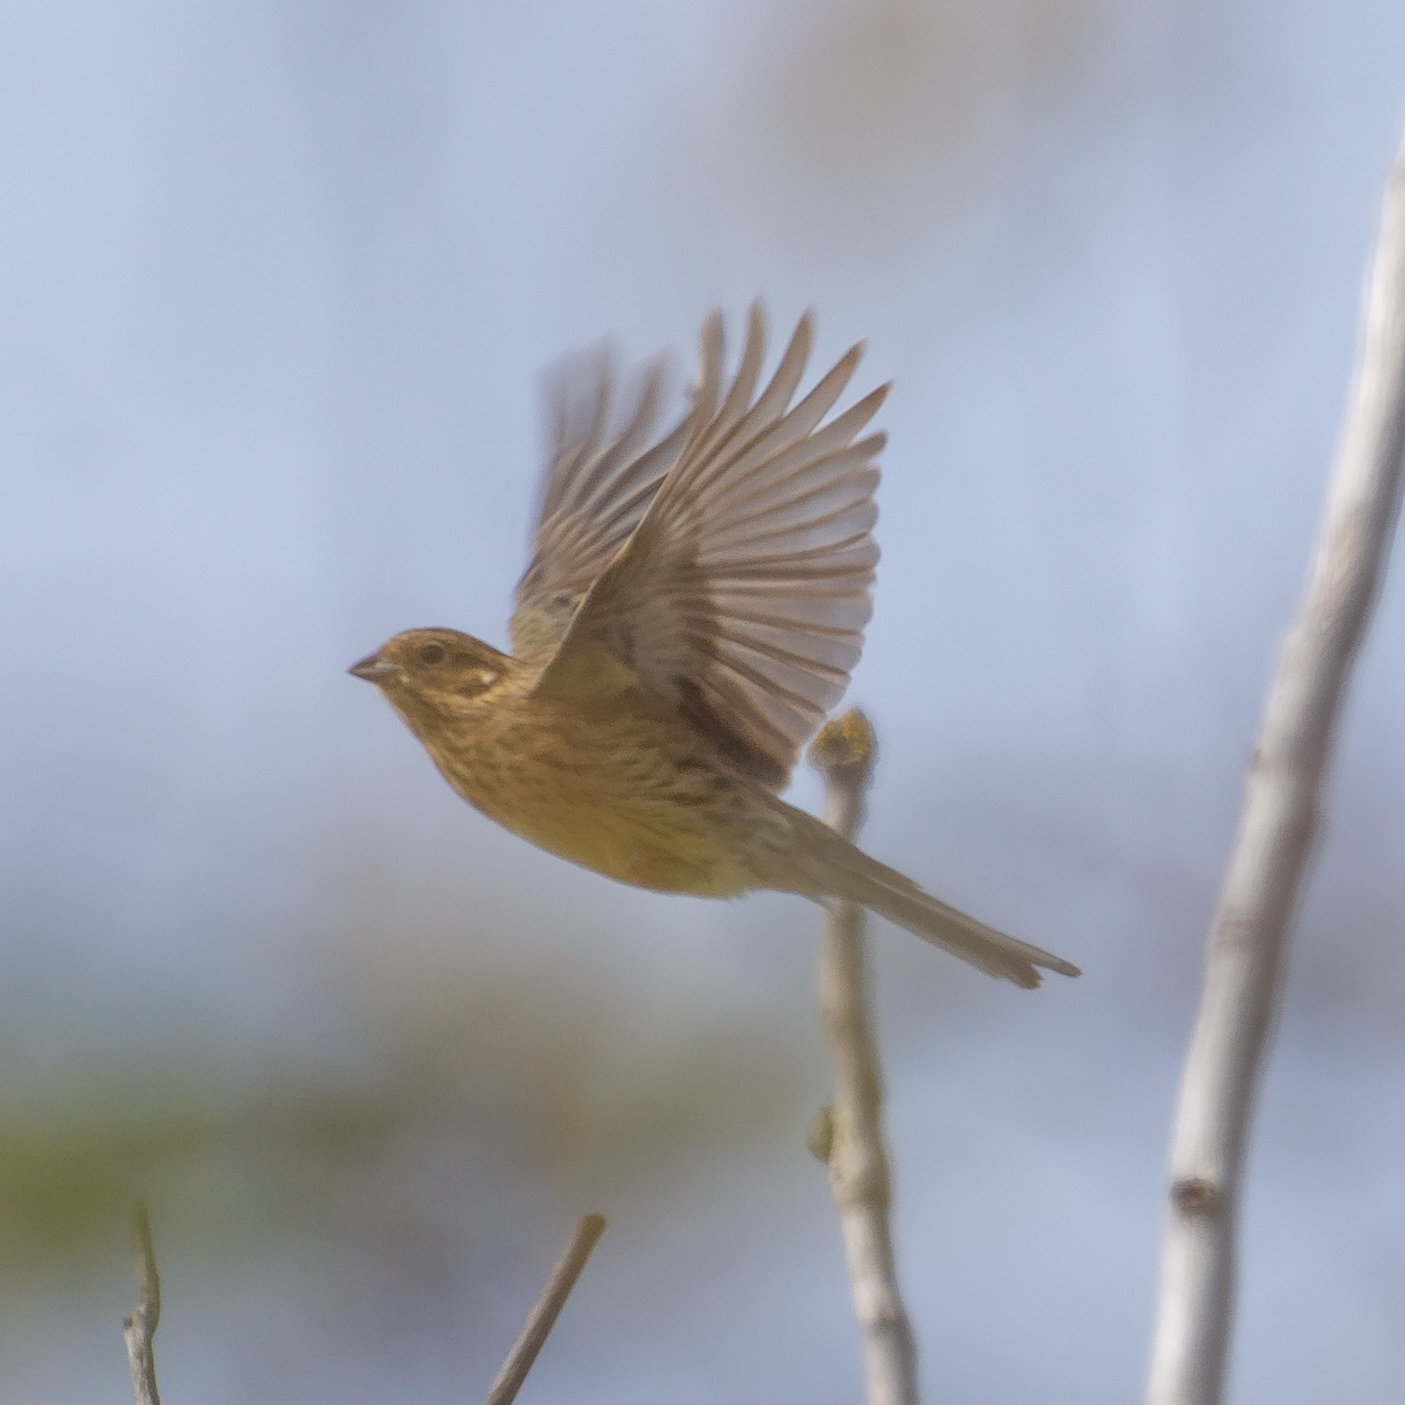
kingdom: Animalia
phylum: Chordata
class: Aves
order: Passeriformes
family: Emberizidae
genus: Emberiza
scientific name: Emberiza cirlus
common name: Cirl bunting
